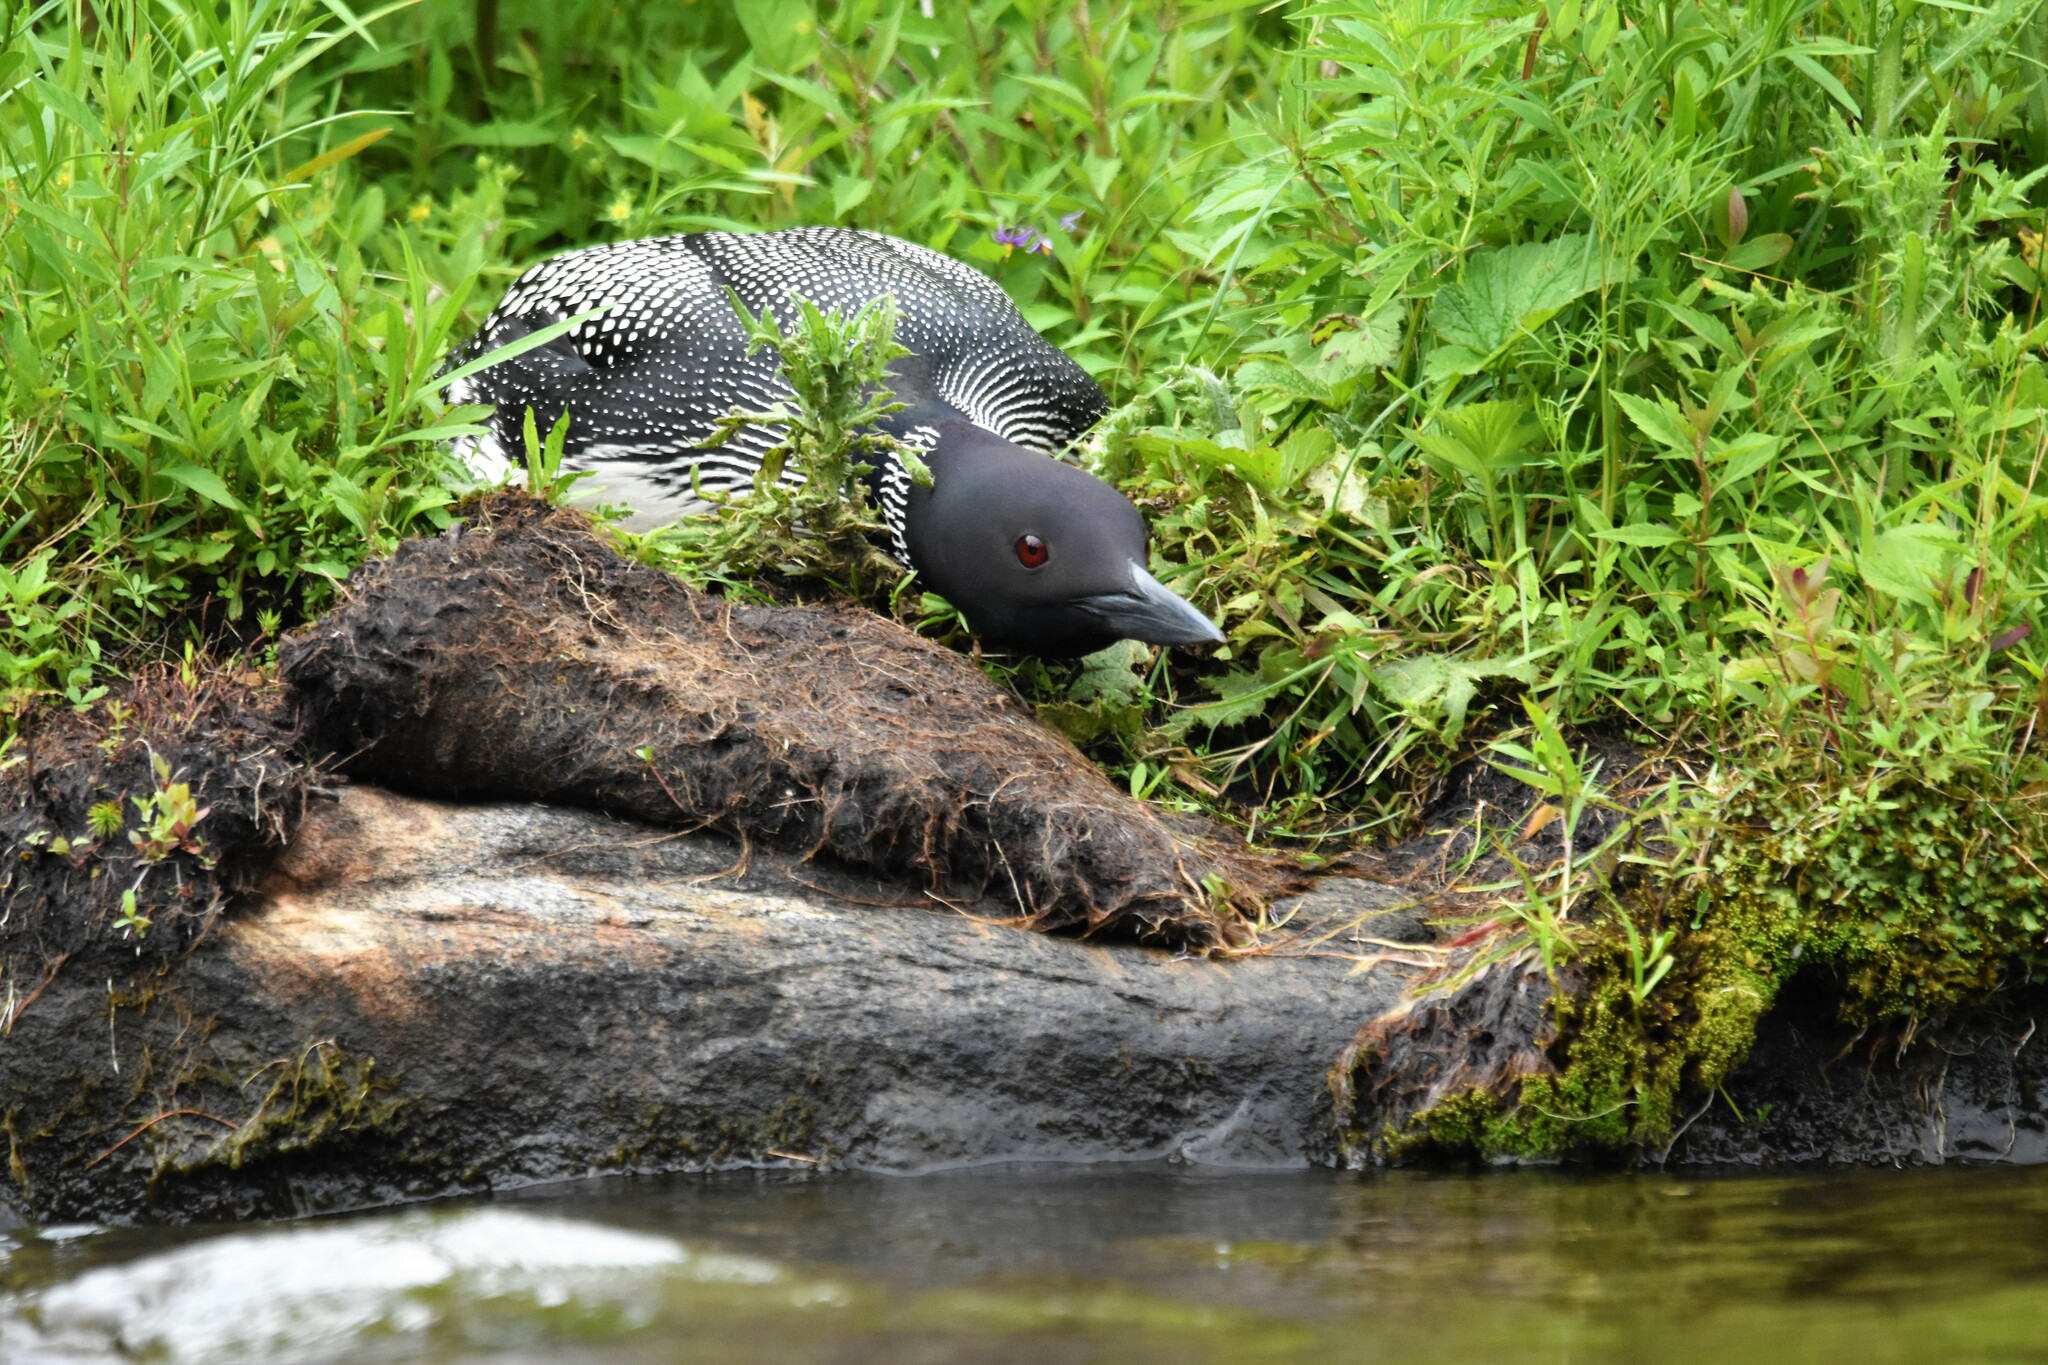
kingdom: Animalia
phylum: Chordata
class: Aves
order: Gaviiformes
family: Gaviidae
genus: Gavia
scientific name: Gavia immer
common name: Common loon
